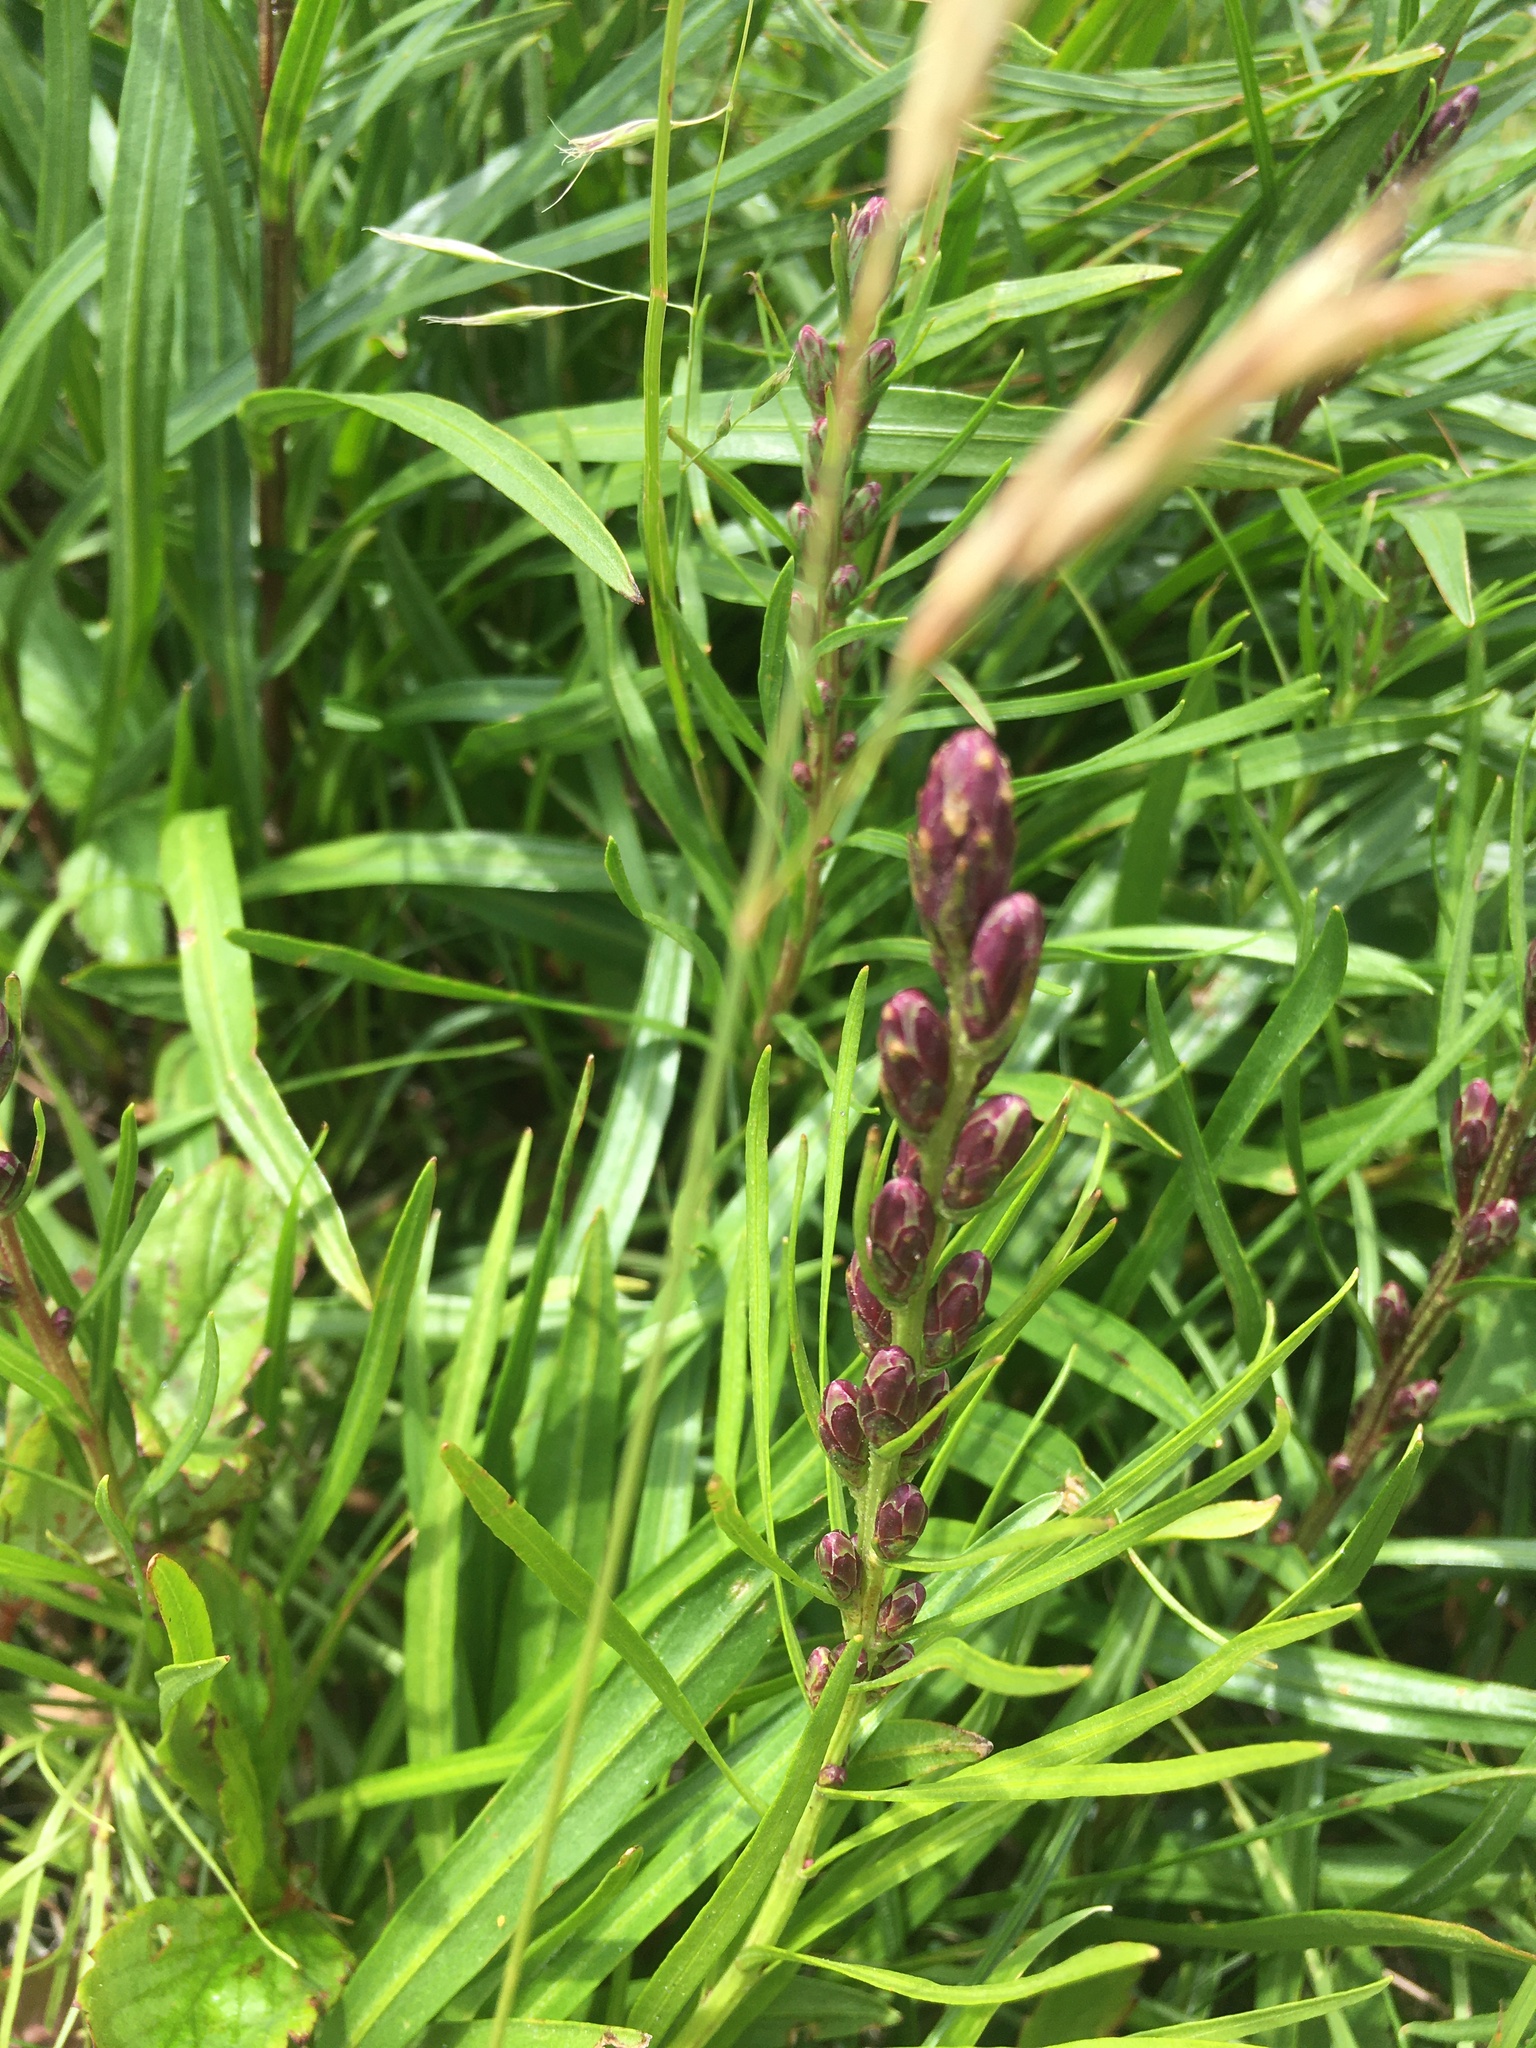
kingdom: Plantae
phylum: Tracheophyta
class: Magnoliopsida
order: Asterales
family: Asteraceae
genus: Liatris
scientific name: Liatris helleri
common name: Heller's blazingstar
